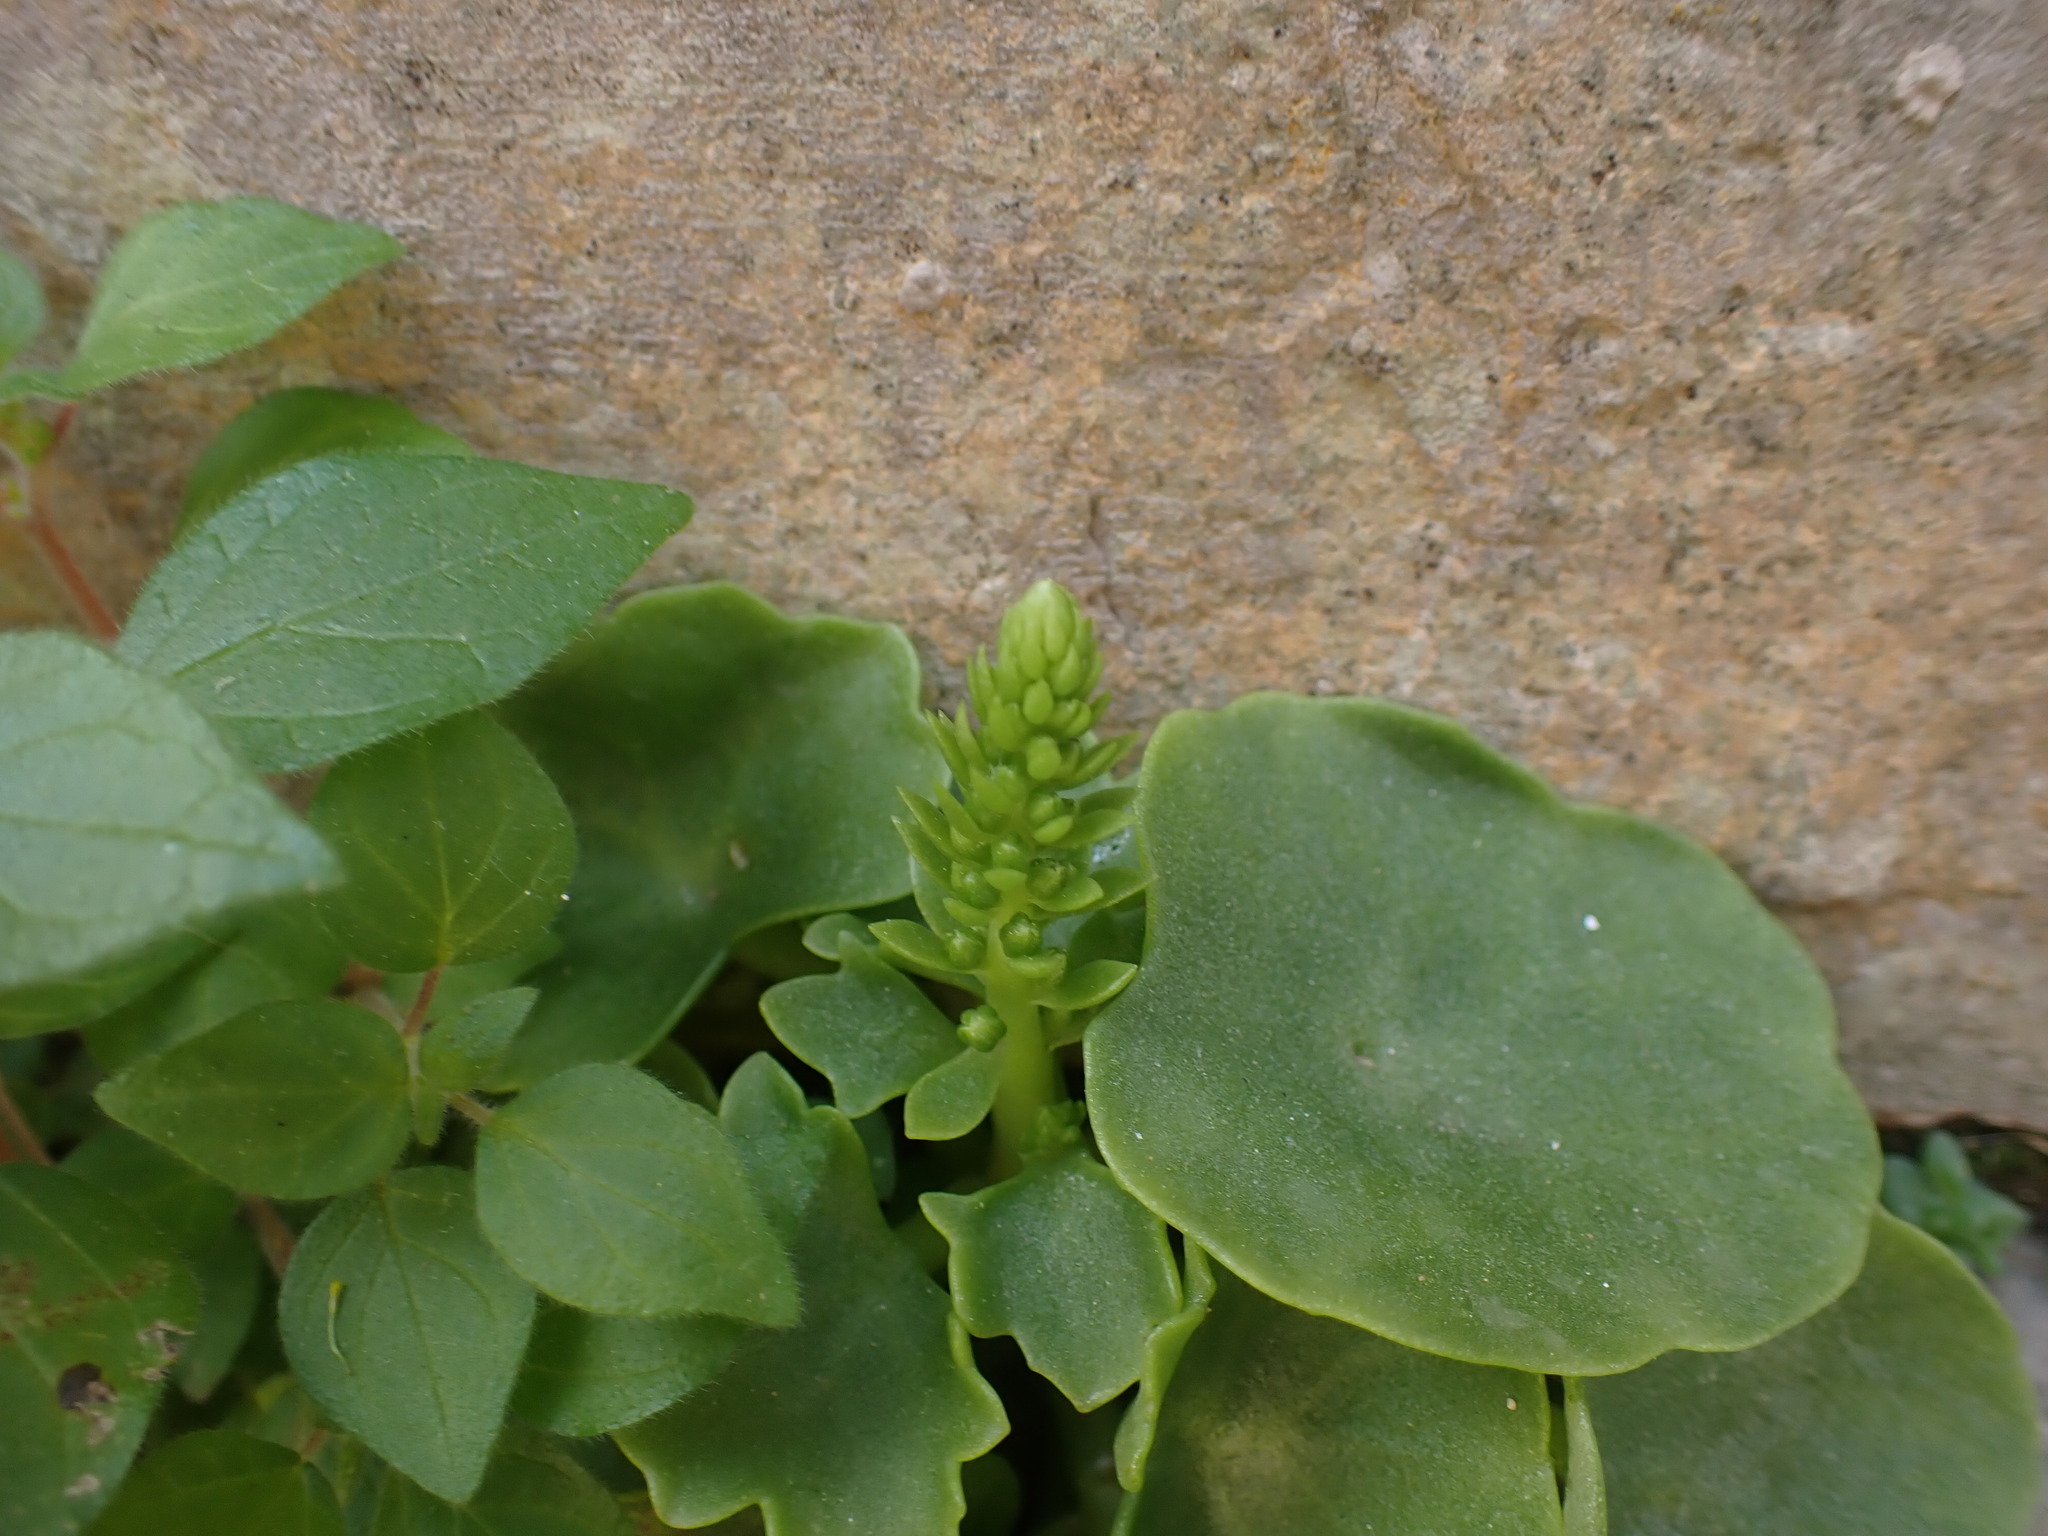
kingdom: Plantae
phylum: Tracheophyta
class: Magnoliopsida
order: Saxifragales
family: Crassulaceae
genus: Umbilicus
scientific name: Umbilicus rupestris
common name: Navelwort
